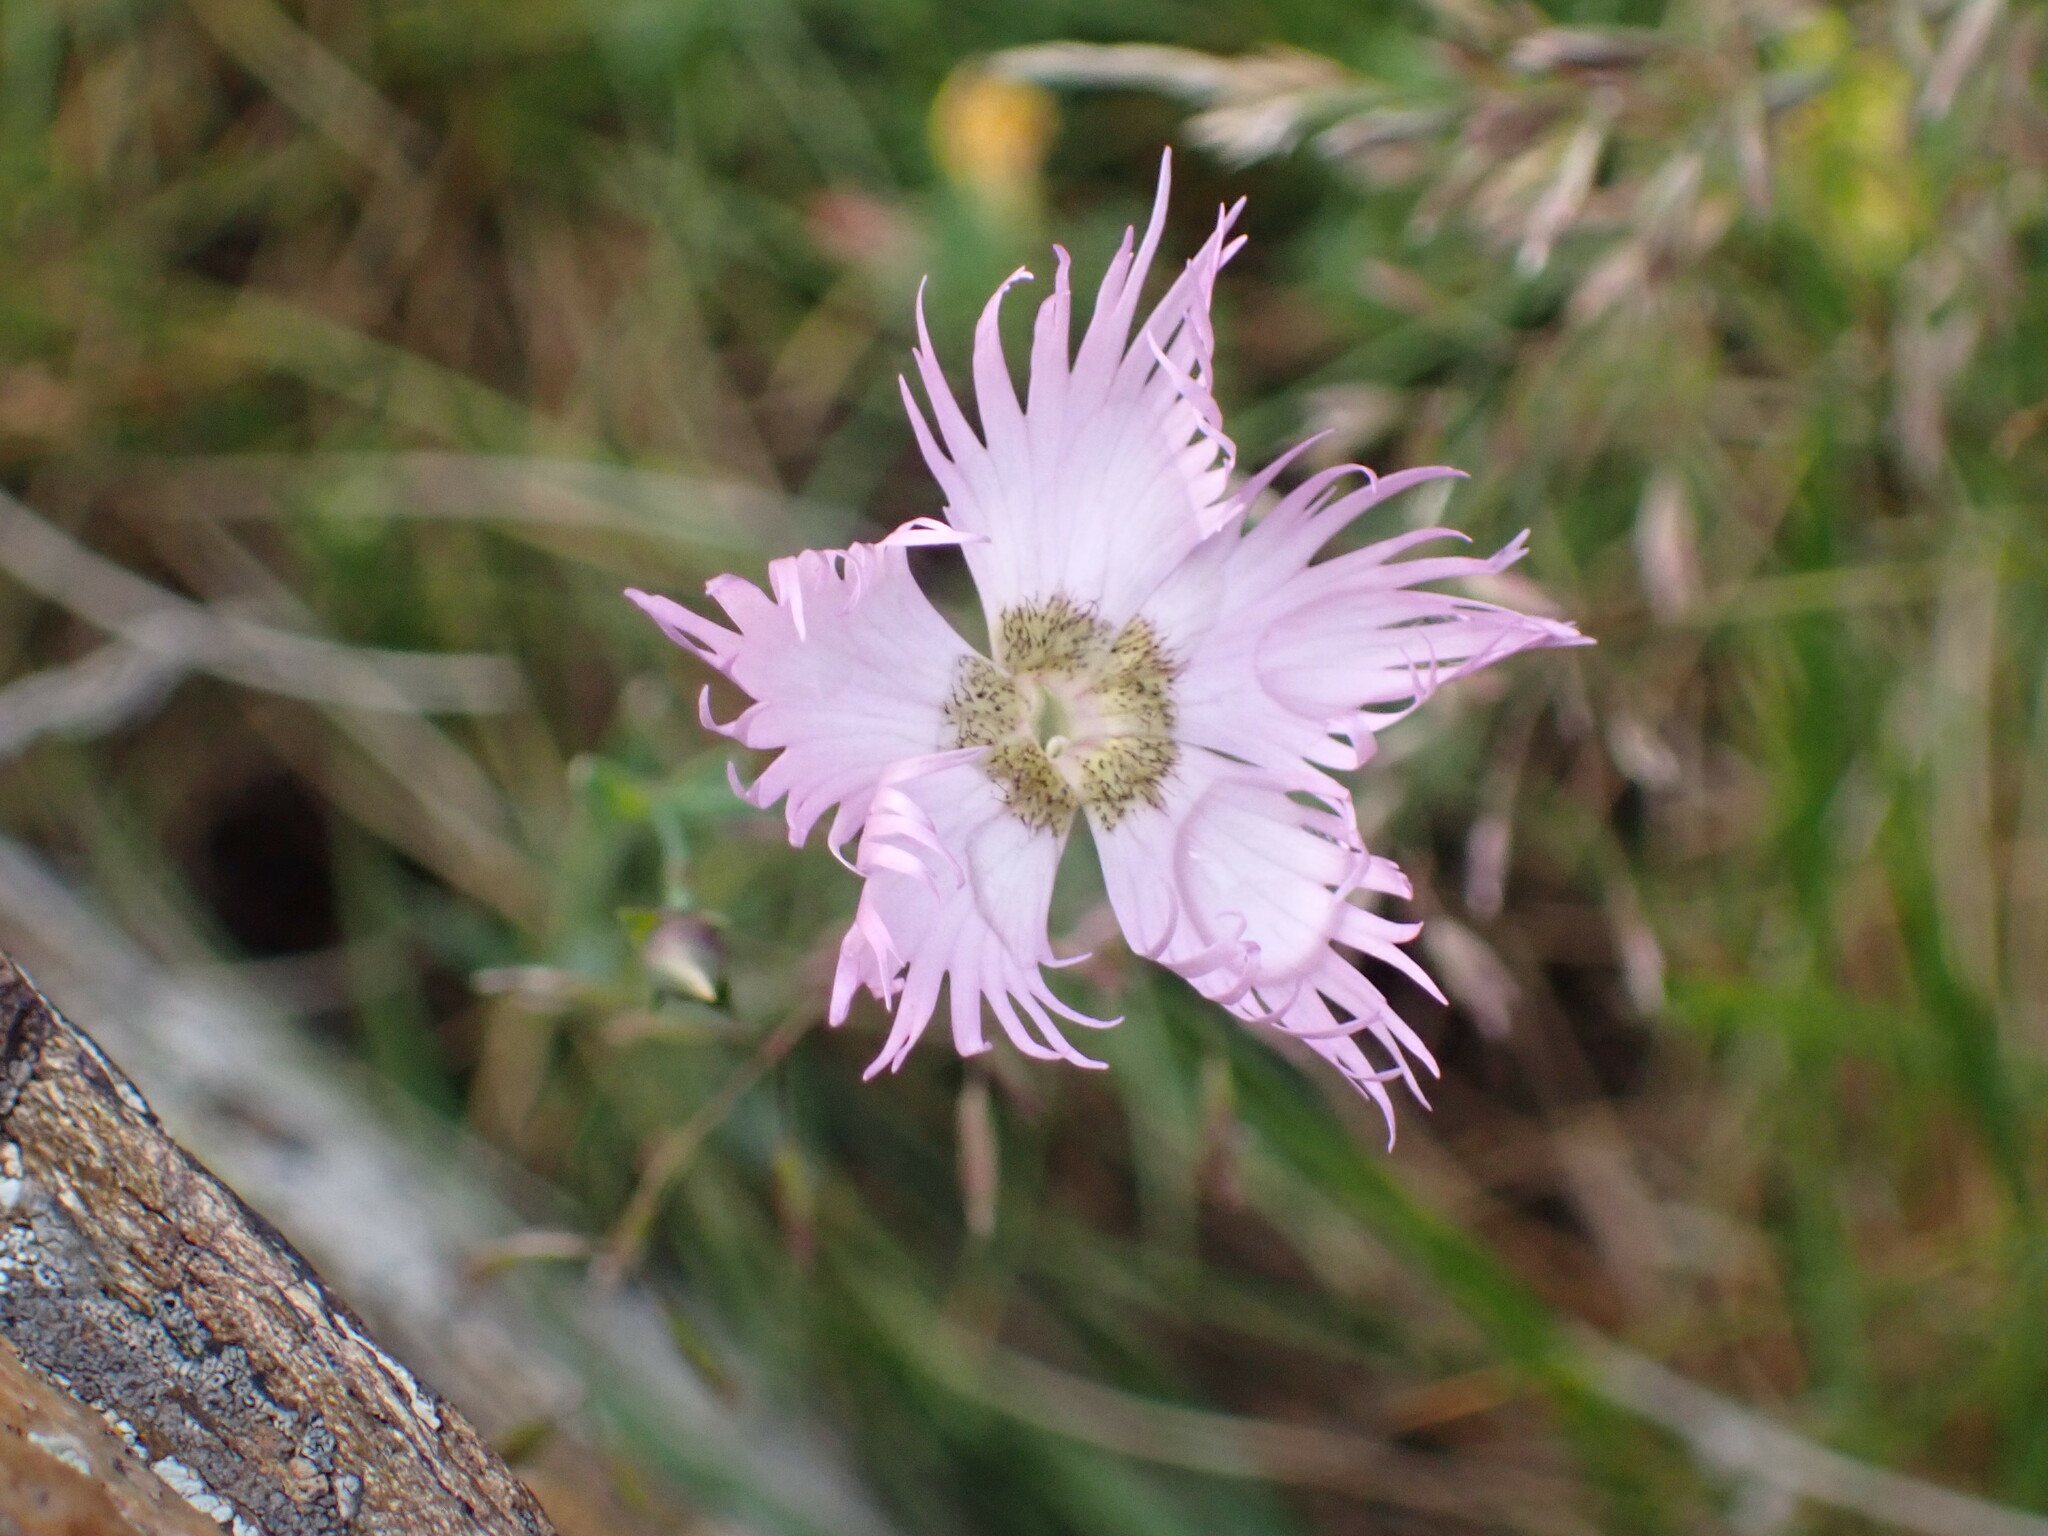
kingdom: Plantae
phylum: Tracheophyta
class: Magnoliopsida
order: Caryophyllales
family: Caryophyllaceae
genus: Dianthus
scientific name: Dianthus hyssopifolius
